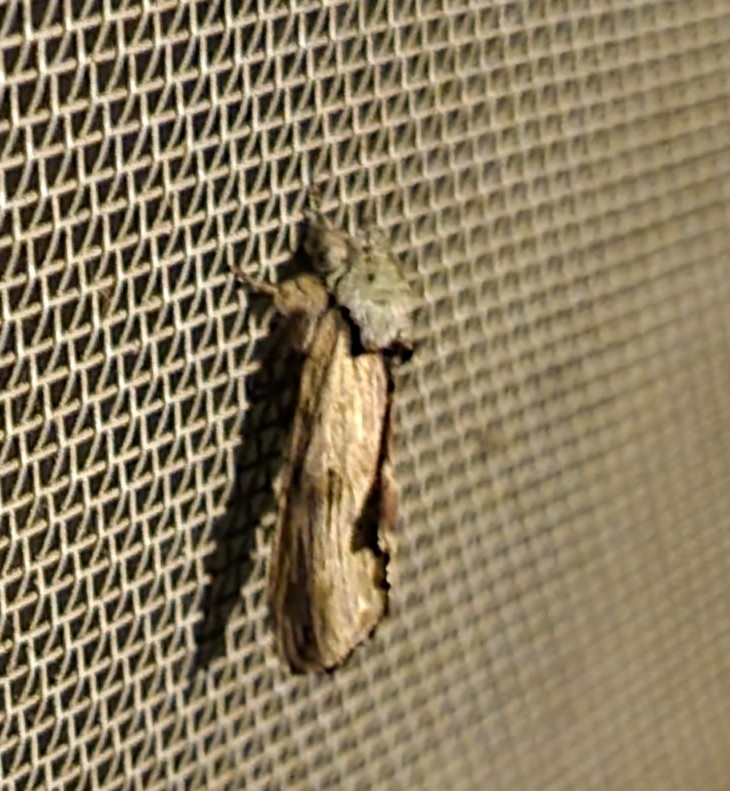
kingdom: Animalia
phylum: Arthropoda
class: Insecta
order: Lepidoptera
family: Notodontidae
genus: Schizura
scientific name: Schizura
